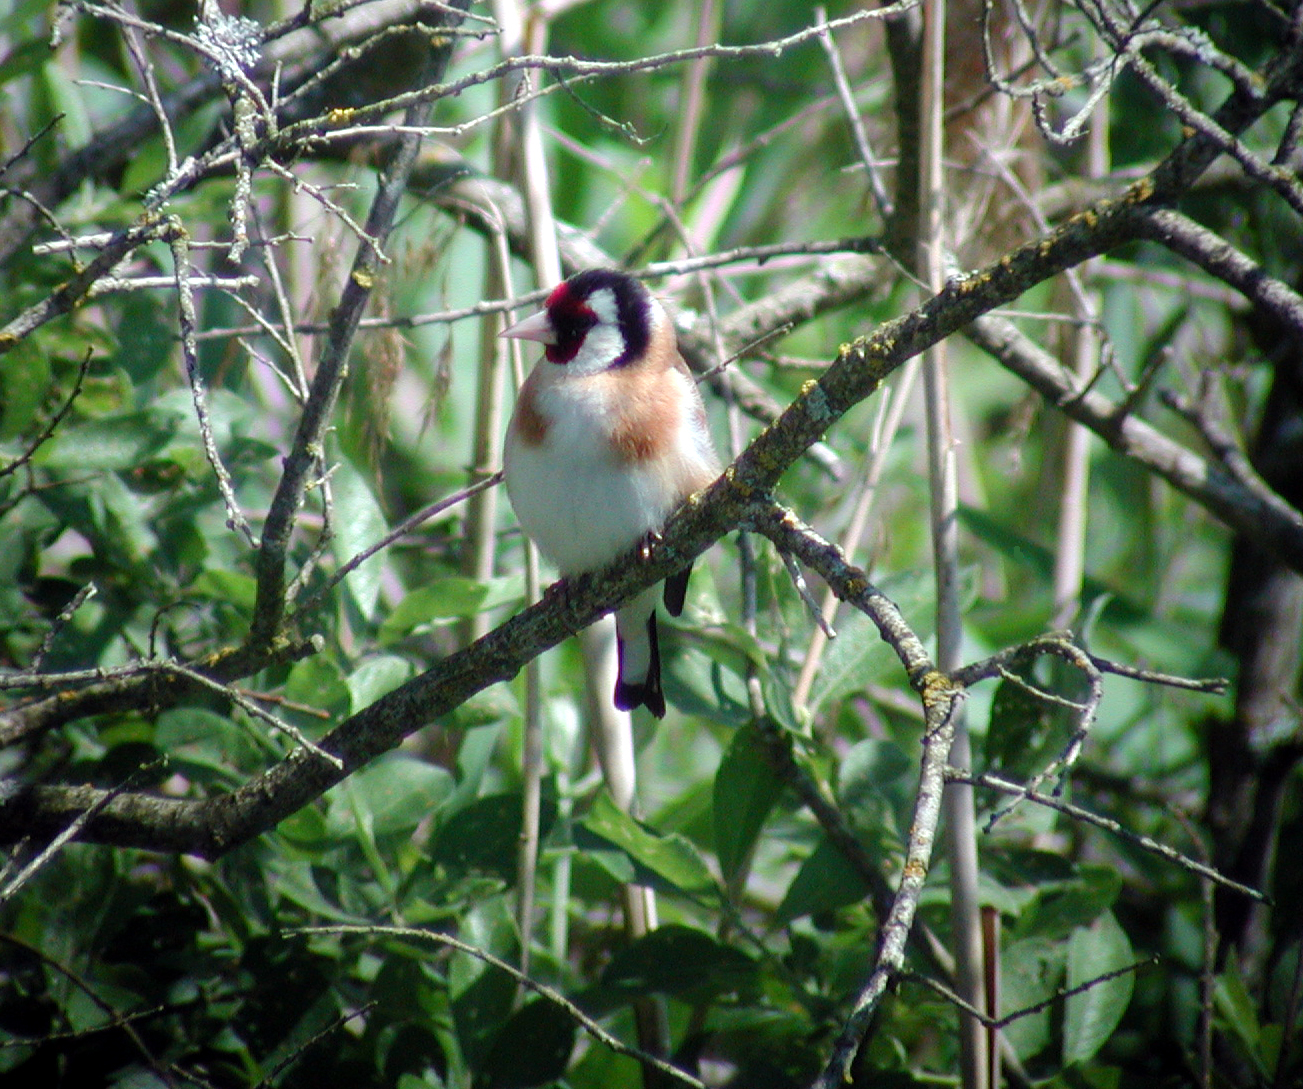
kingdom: Animalia
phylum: Chordata
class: Aves
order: Passeriformes
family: Fringillidae
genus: Carduelis
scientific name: Carduelis carduelis
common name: European goldfinch
